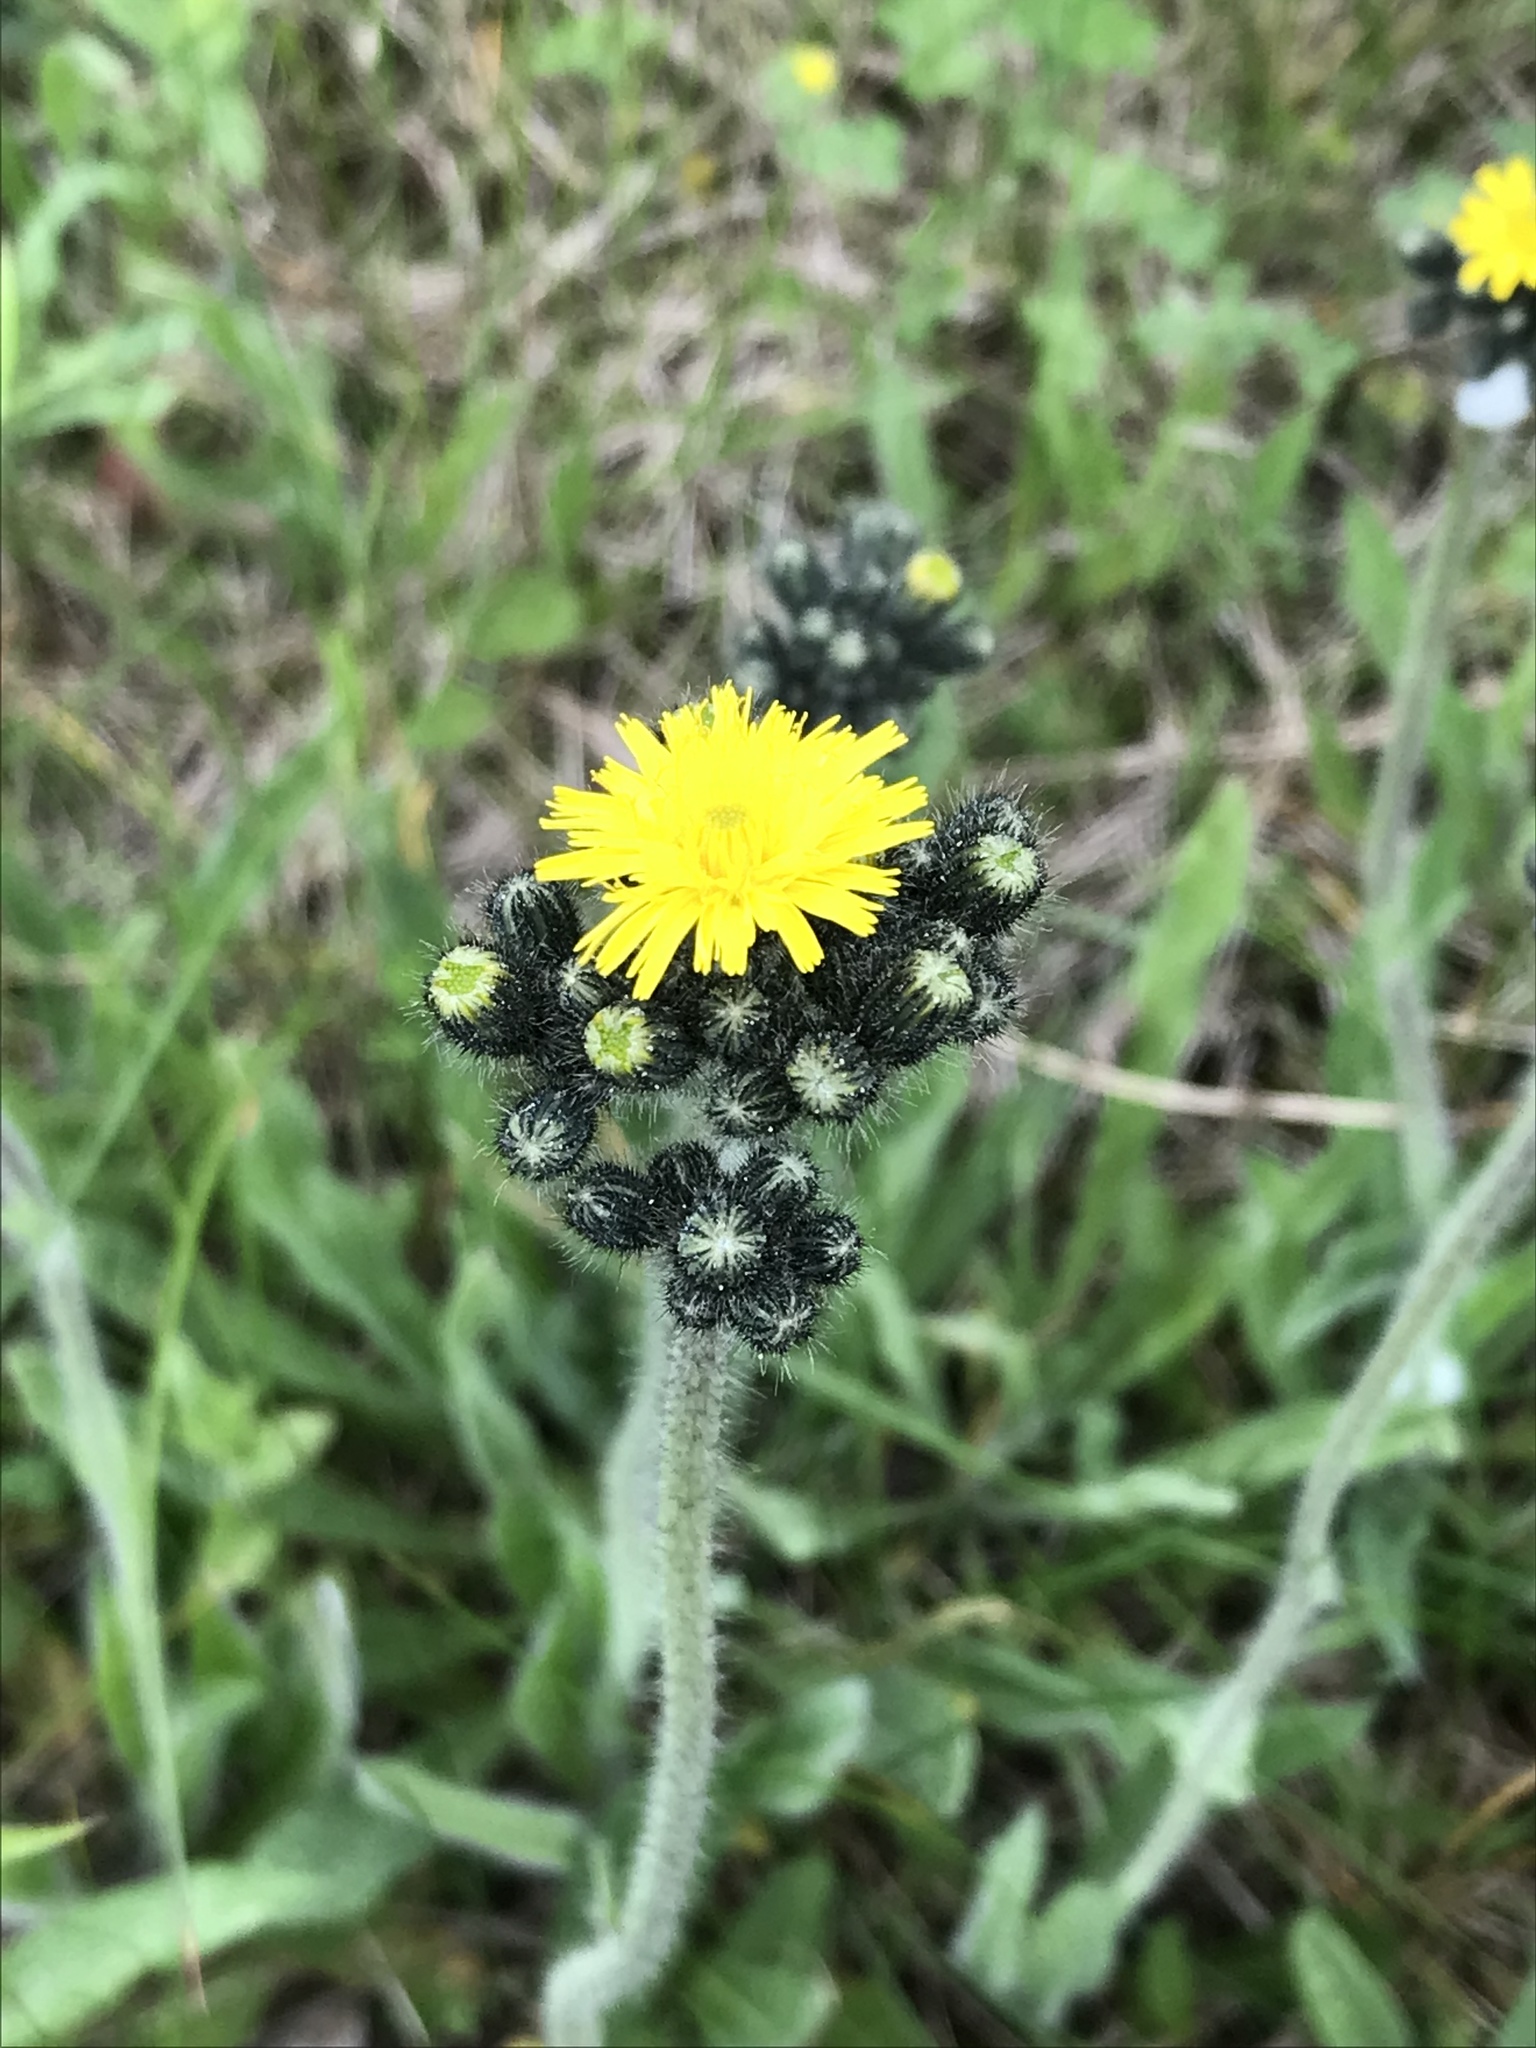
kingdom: Plantae
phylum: Tracheophyta
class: Magnoliopsida
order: Asterales
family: Asteraceae
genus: Pilosella
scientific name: Pilosella caespitosa
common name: Yellow fox-and-cubs
